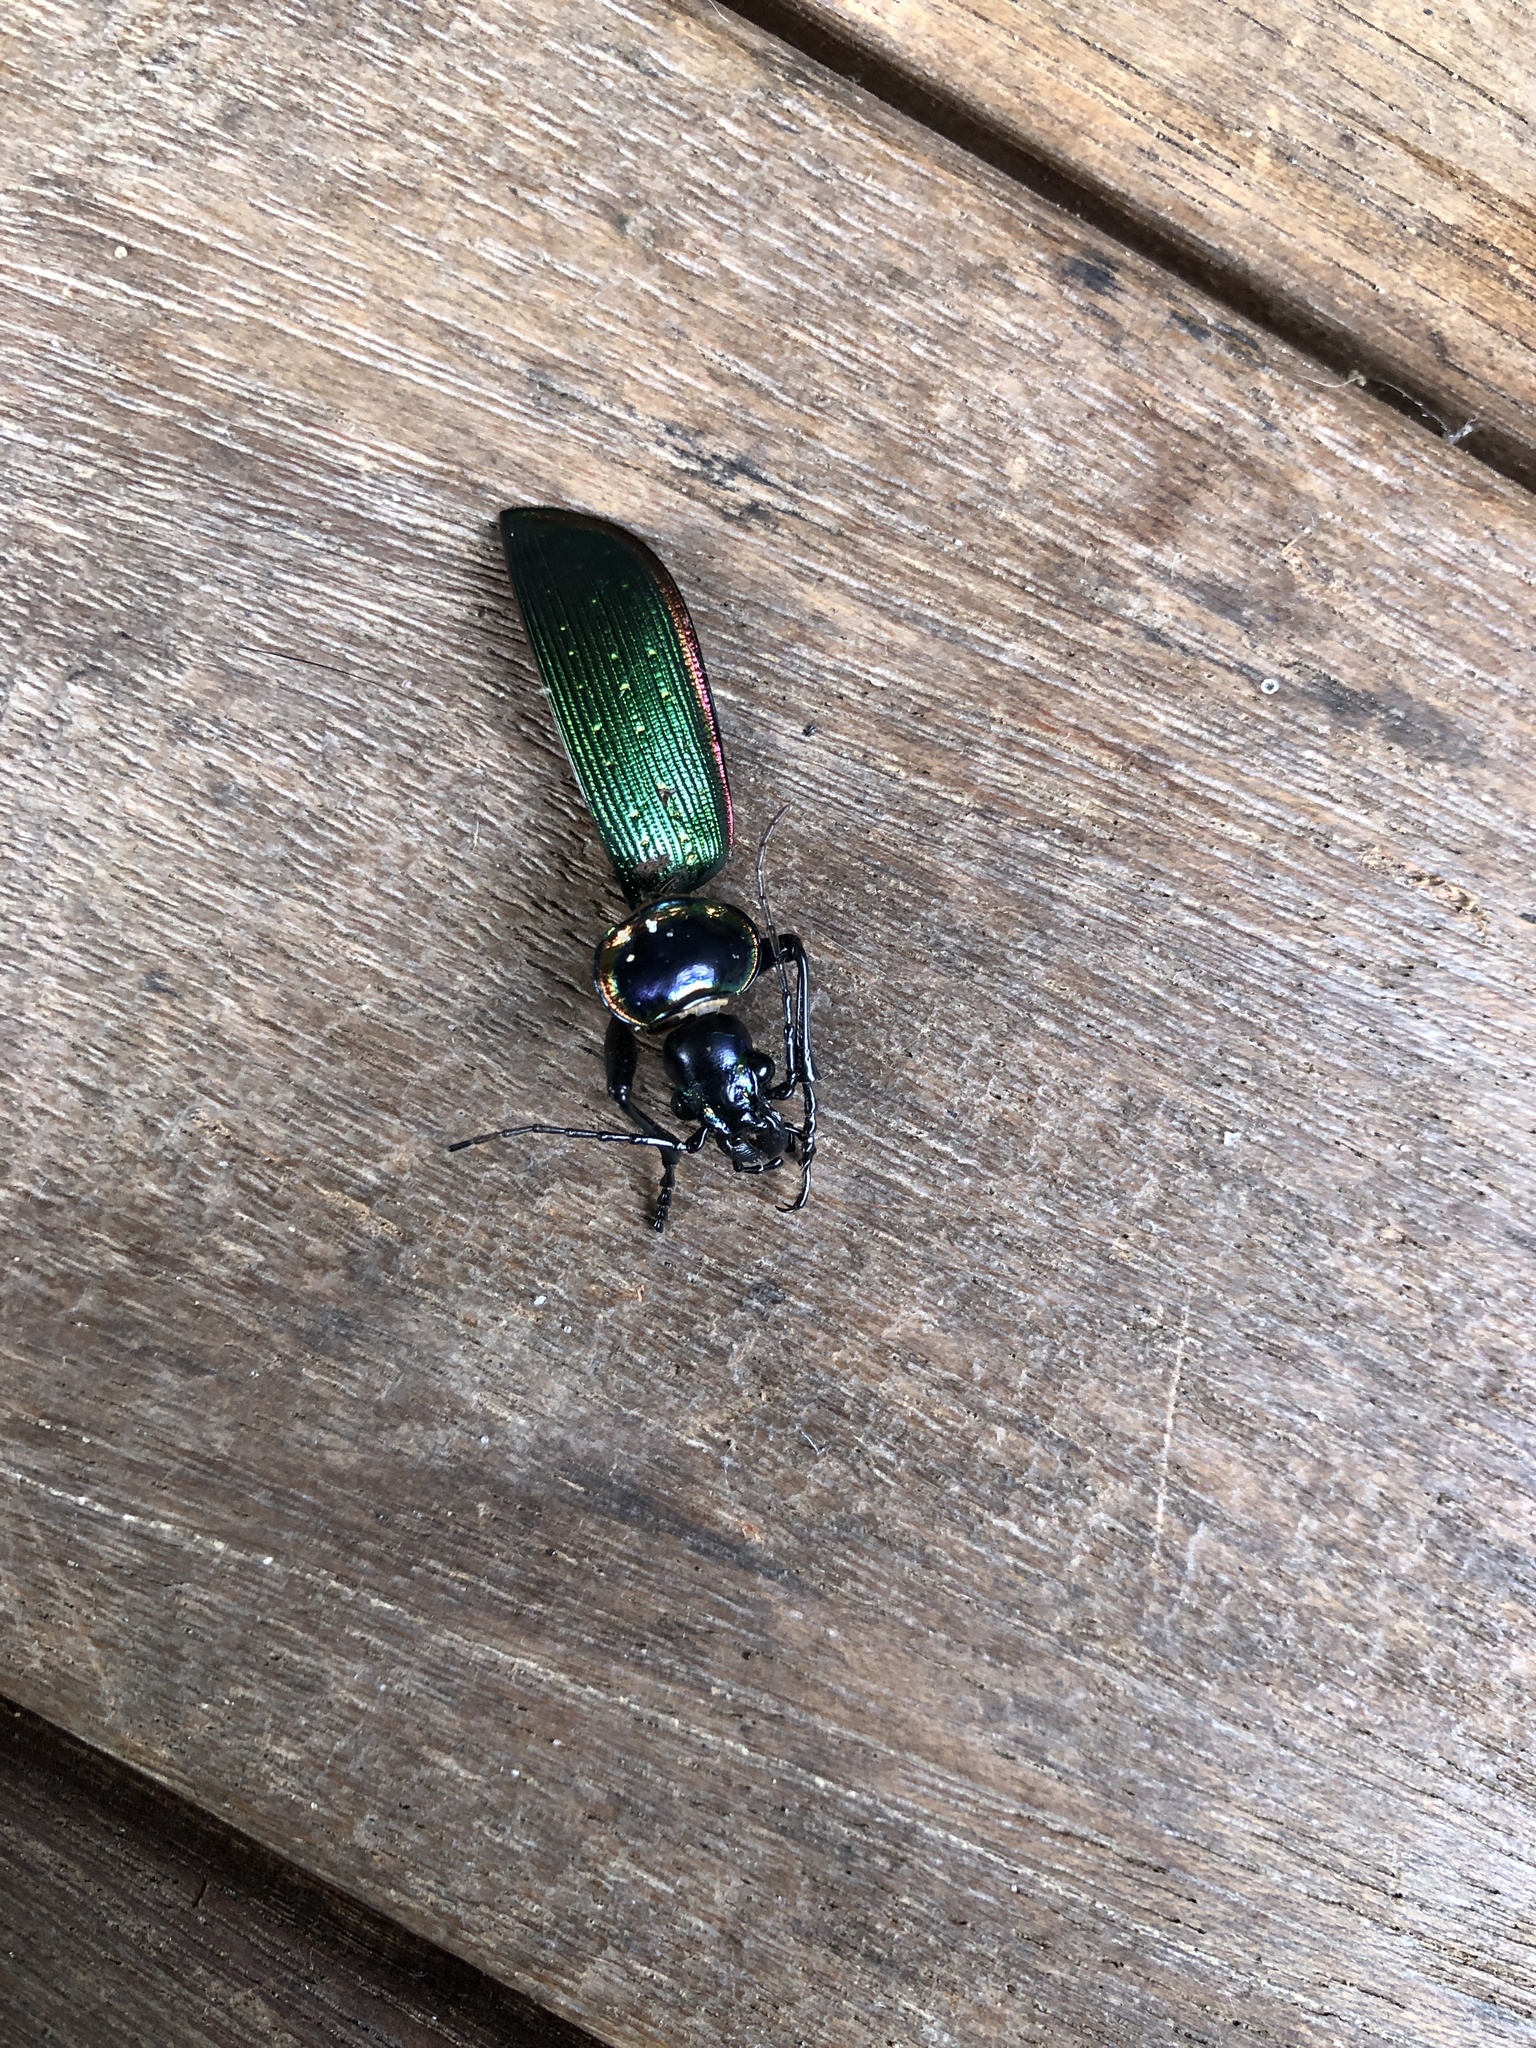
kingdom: Animalia
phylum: Arthropoda
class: Insecta
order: Coleoptera
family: Carabidae
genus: Calosoma
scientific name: Calosoma scrutator
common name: Fiery searcher beetle
